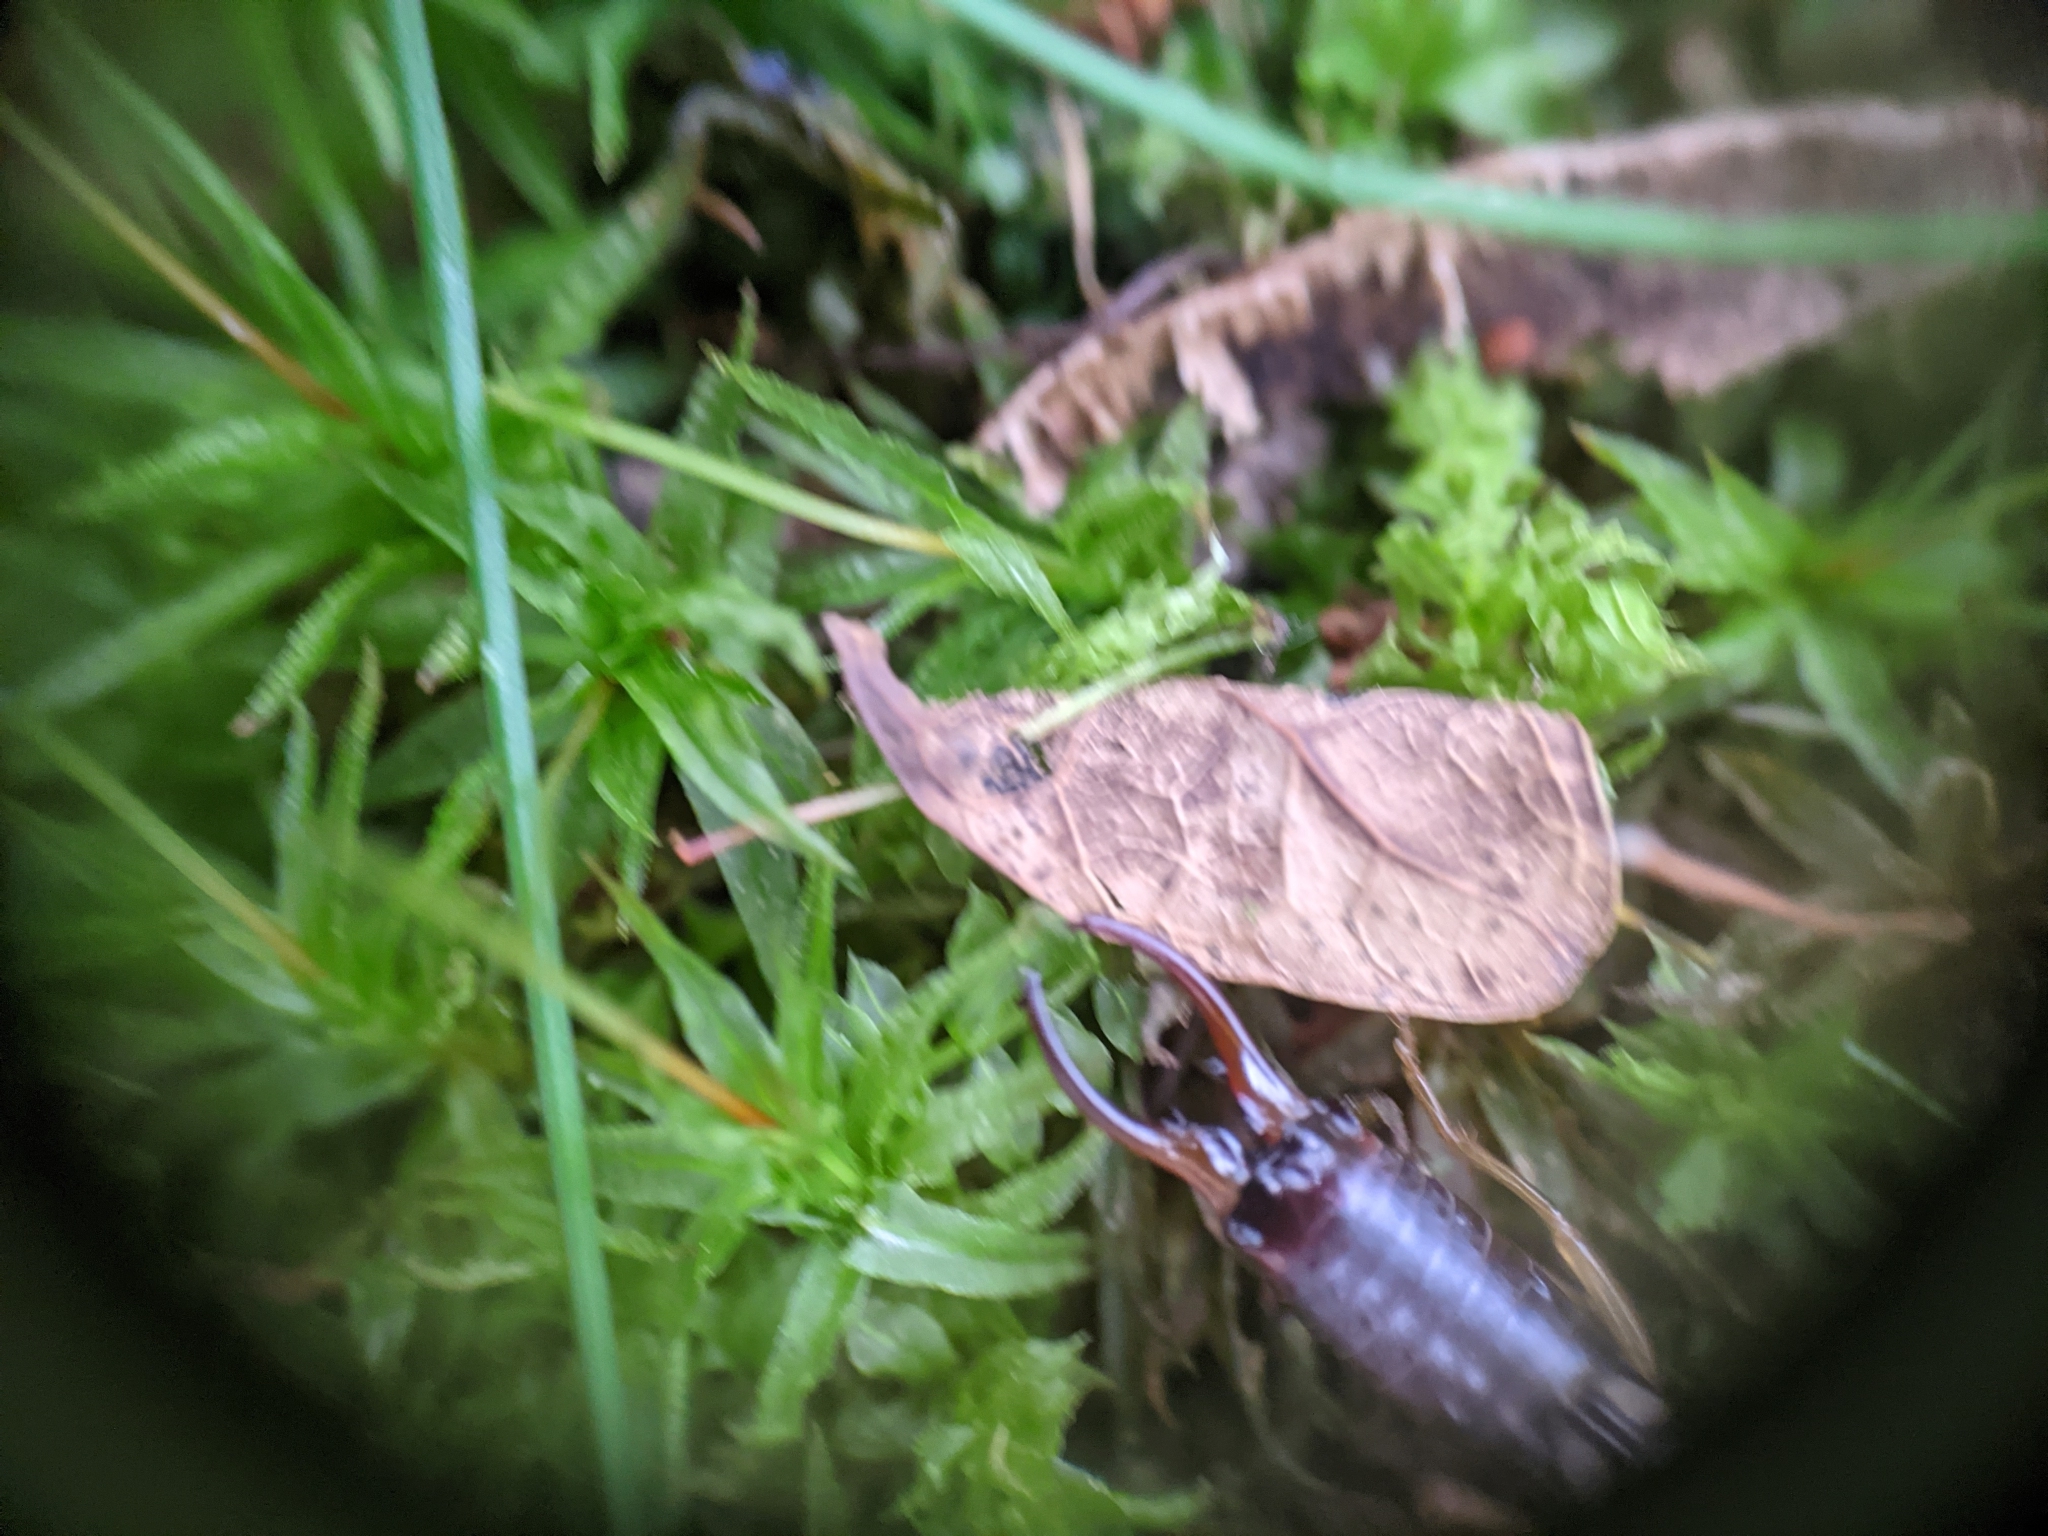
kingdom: Animalia
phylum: Arthropoda
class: Insecta
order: Dermaptera
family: Forficulidae
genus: Forficula
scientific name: Forficula
